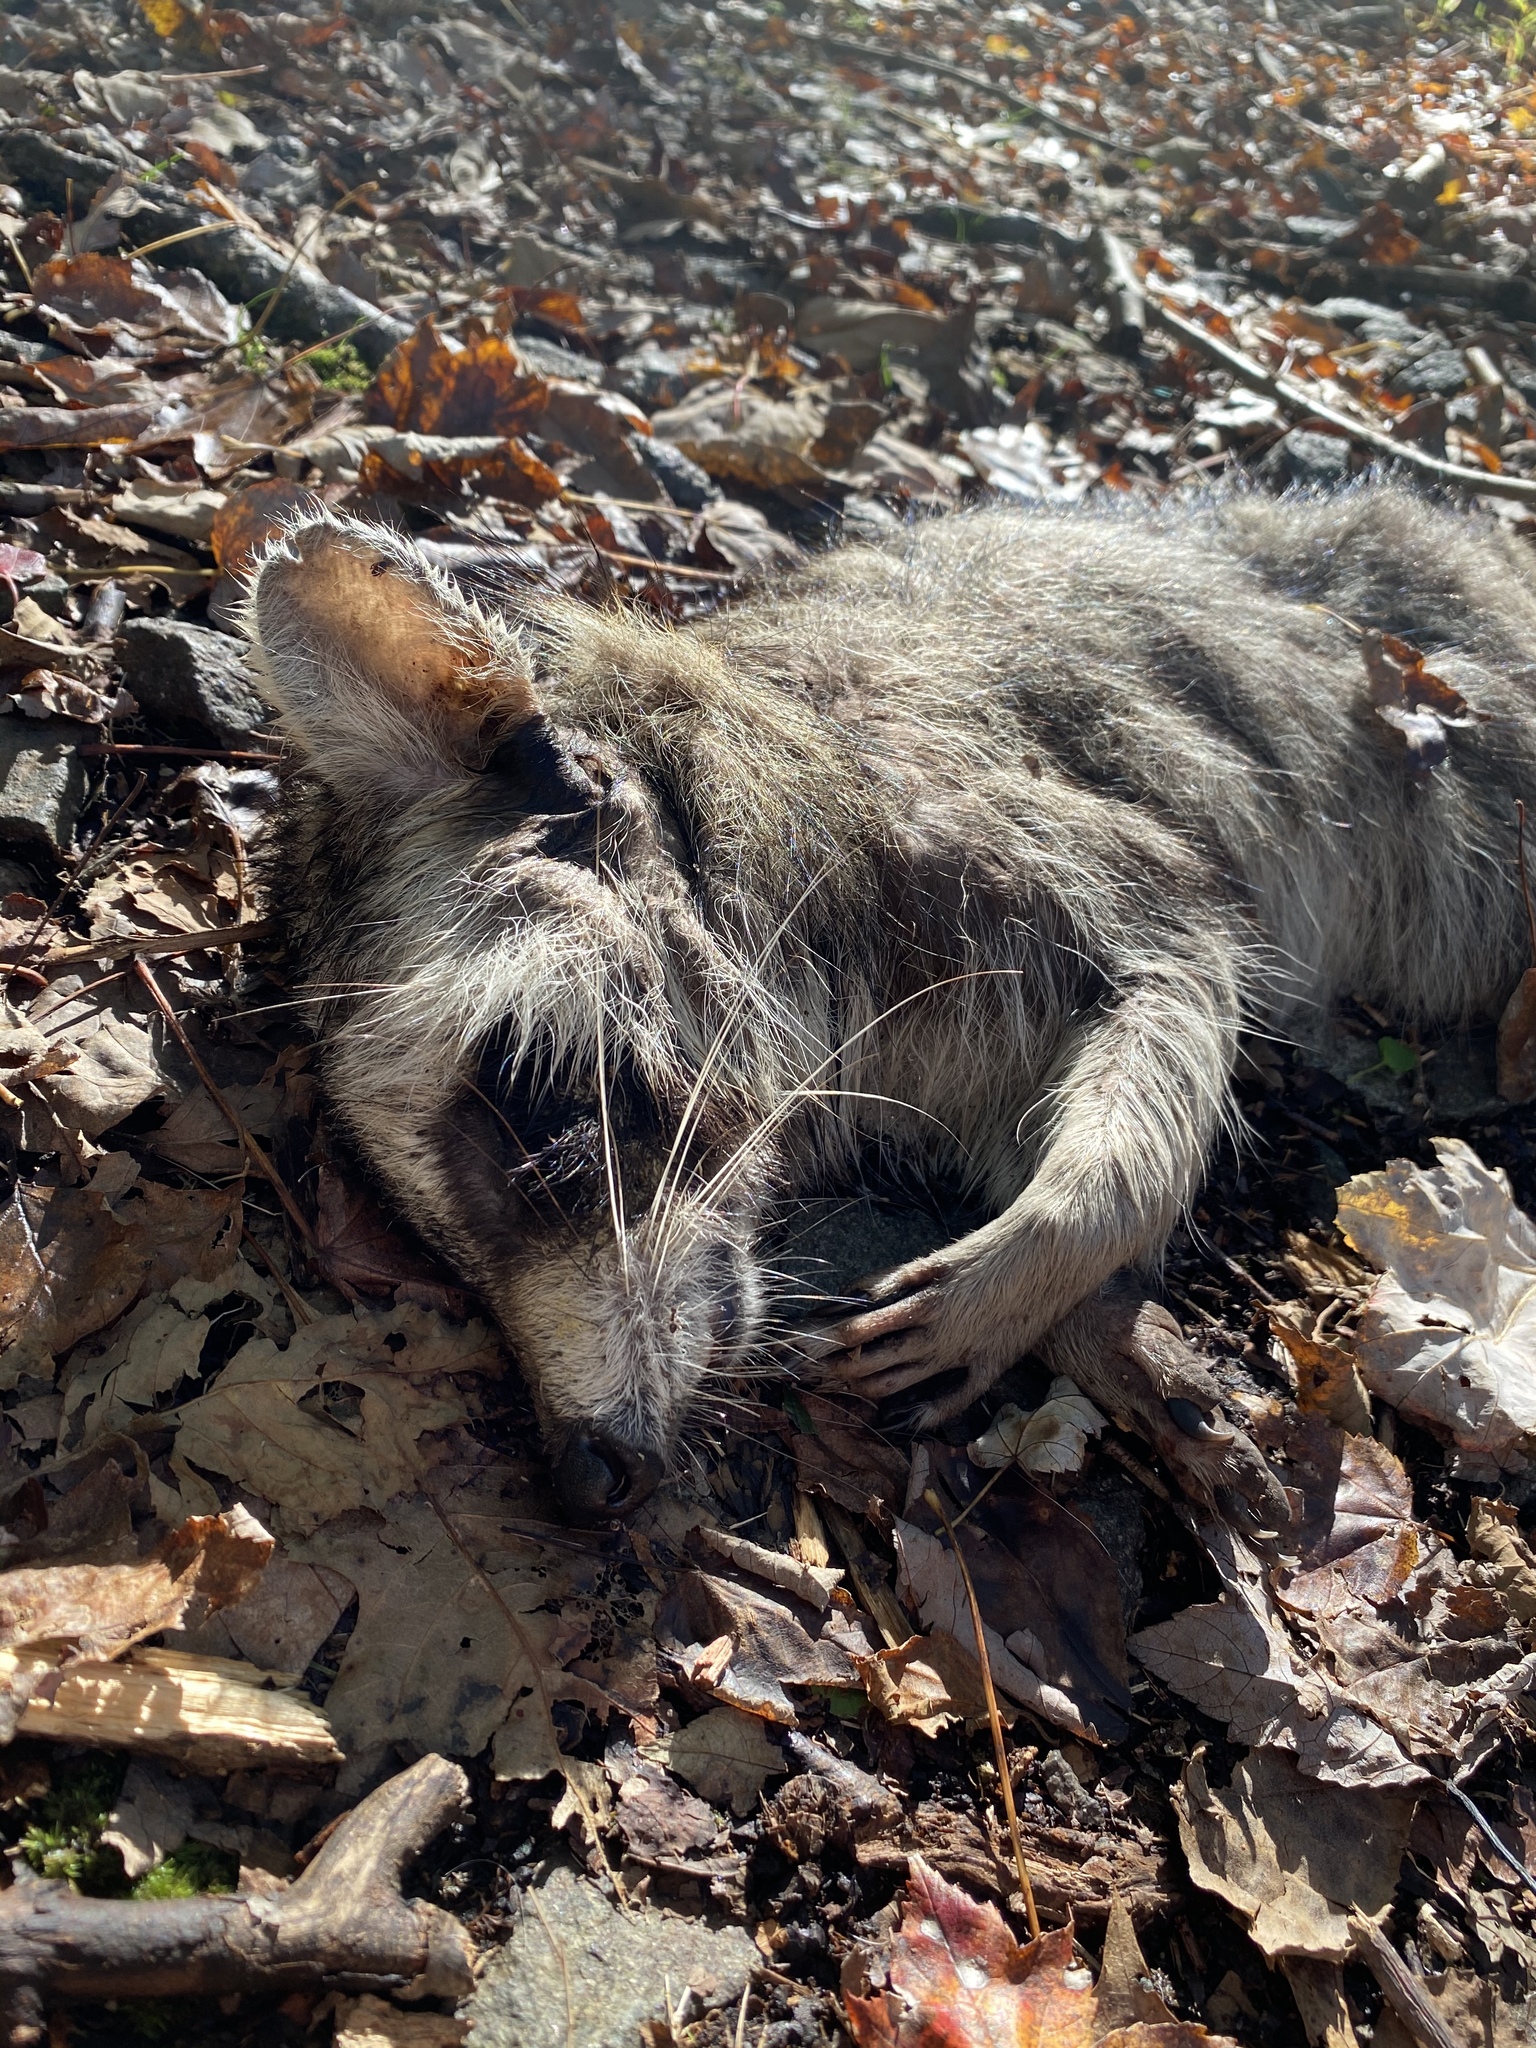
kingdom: Animalia
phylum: Chordata
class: Mammalia
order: Carnivora
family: Procyonidae
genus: Procyon
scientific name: Procyon lotor
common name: Raccoon
